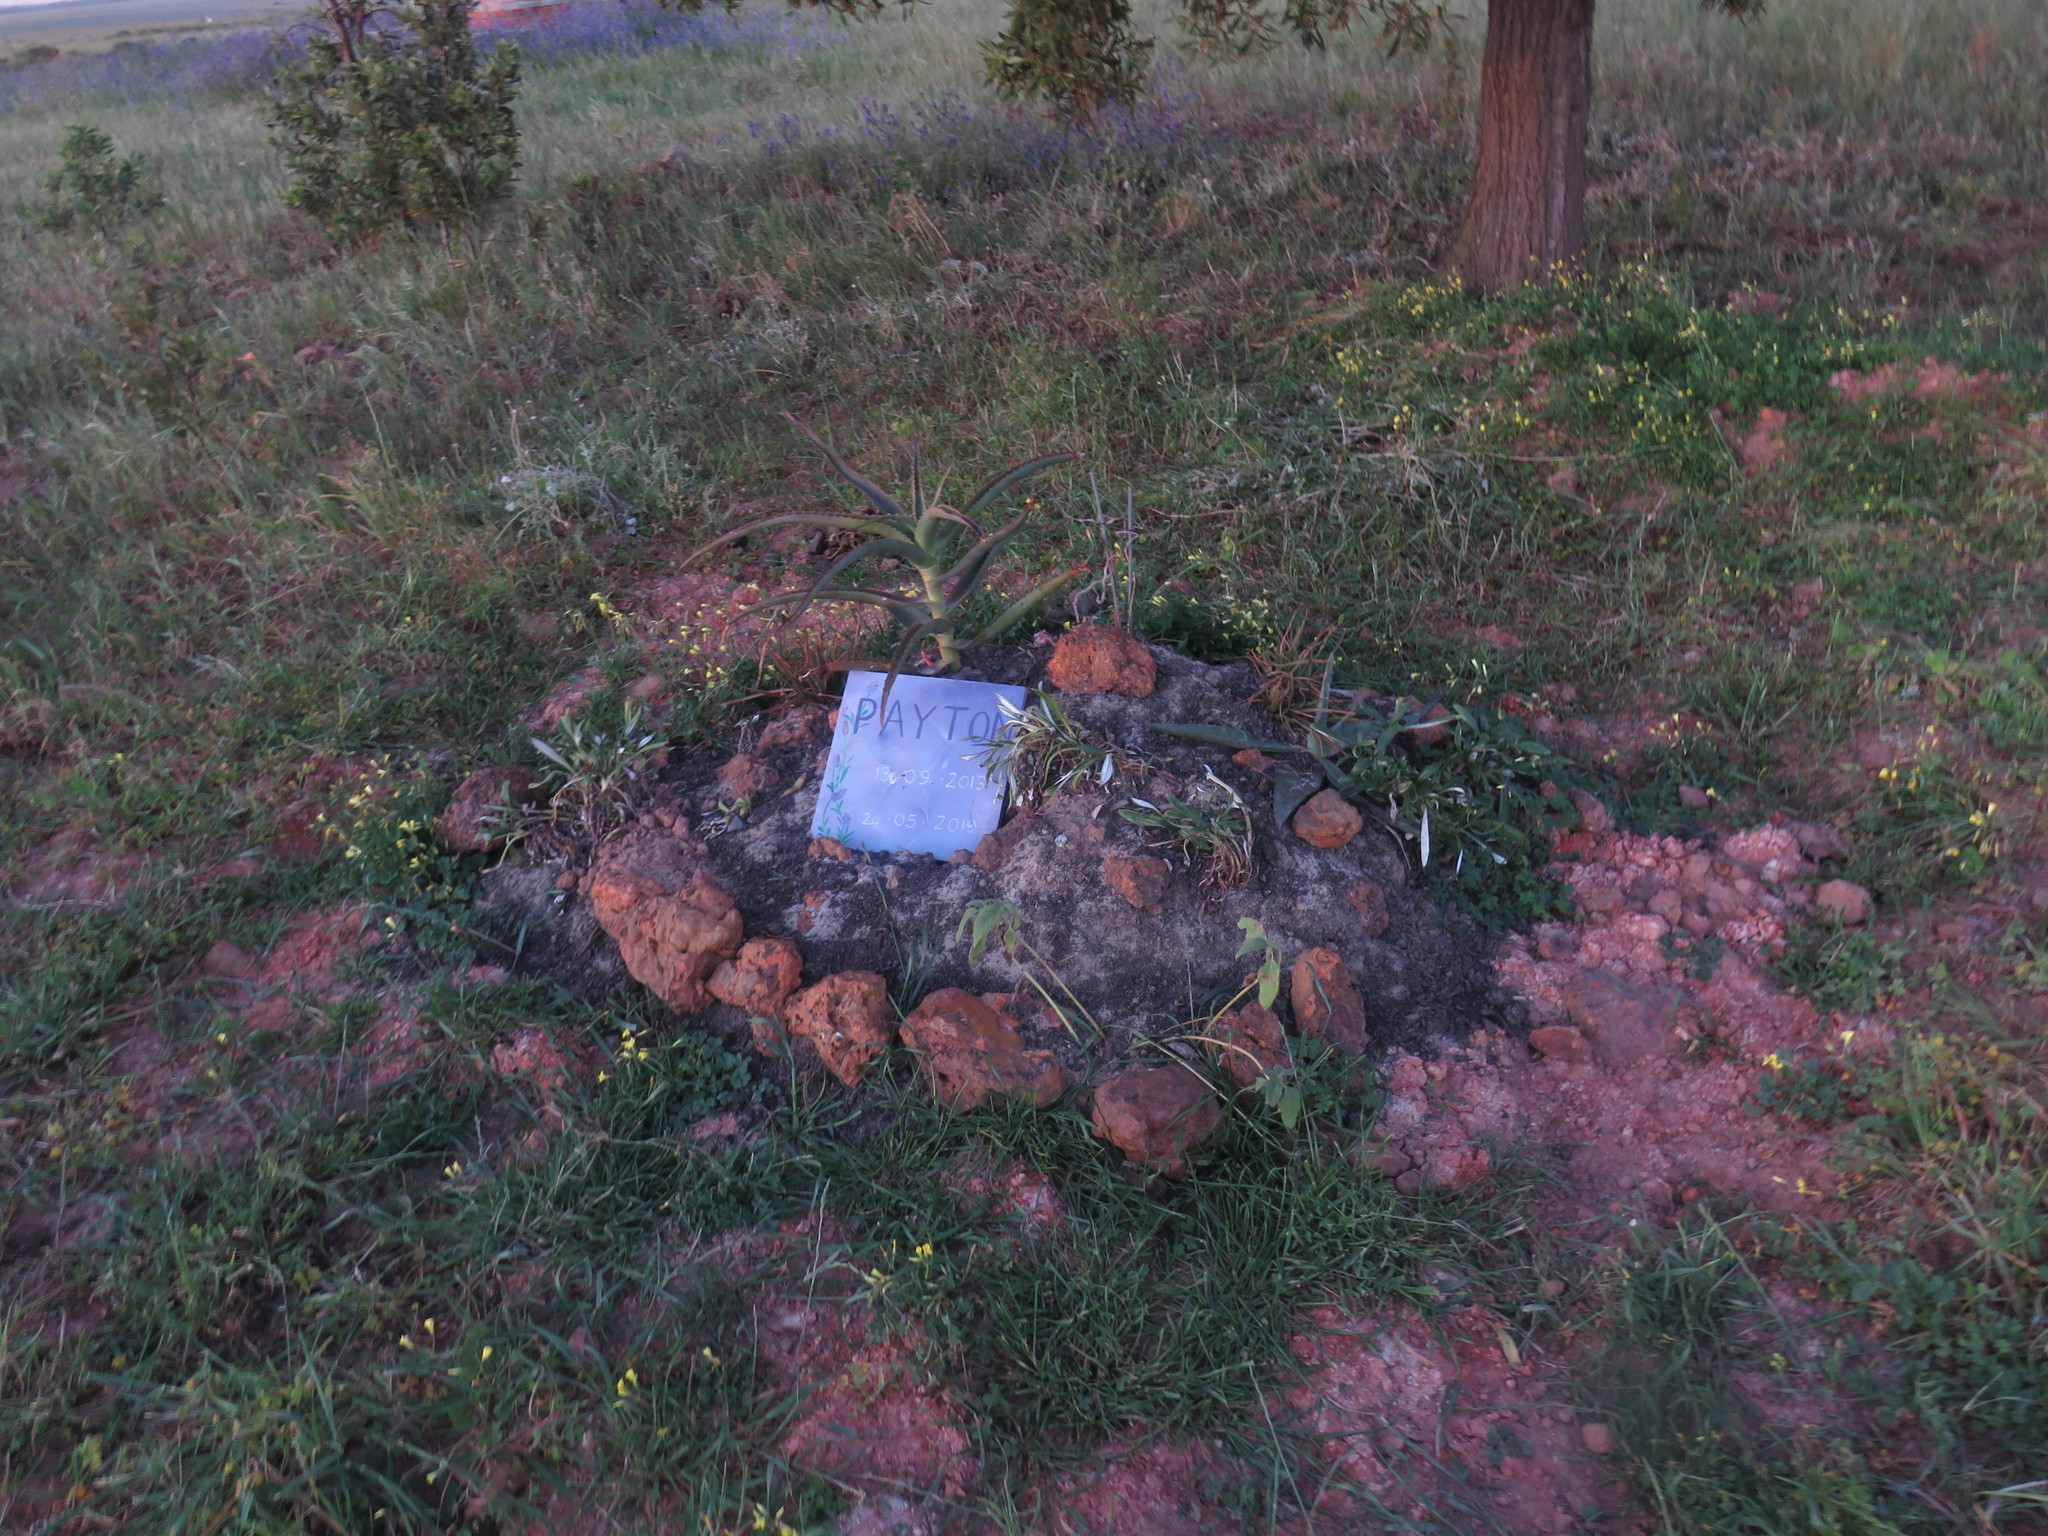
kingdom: Plantae
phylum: Tracheophyta
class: Liliopsida
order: Poales
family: Poaceae
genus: Cenchrus
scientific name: Cenchrus clandestinus
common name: Kikuyugrass
